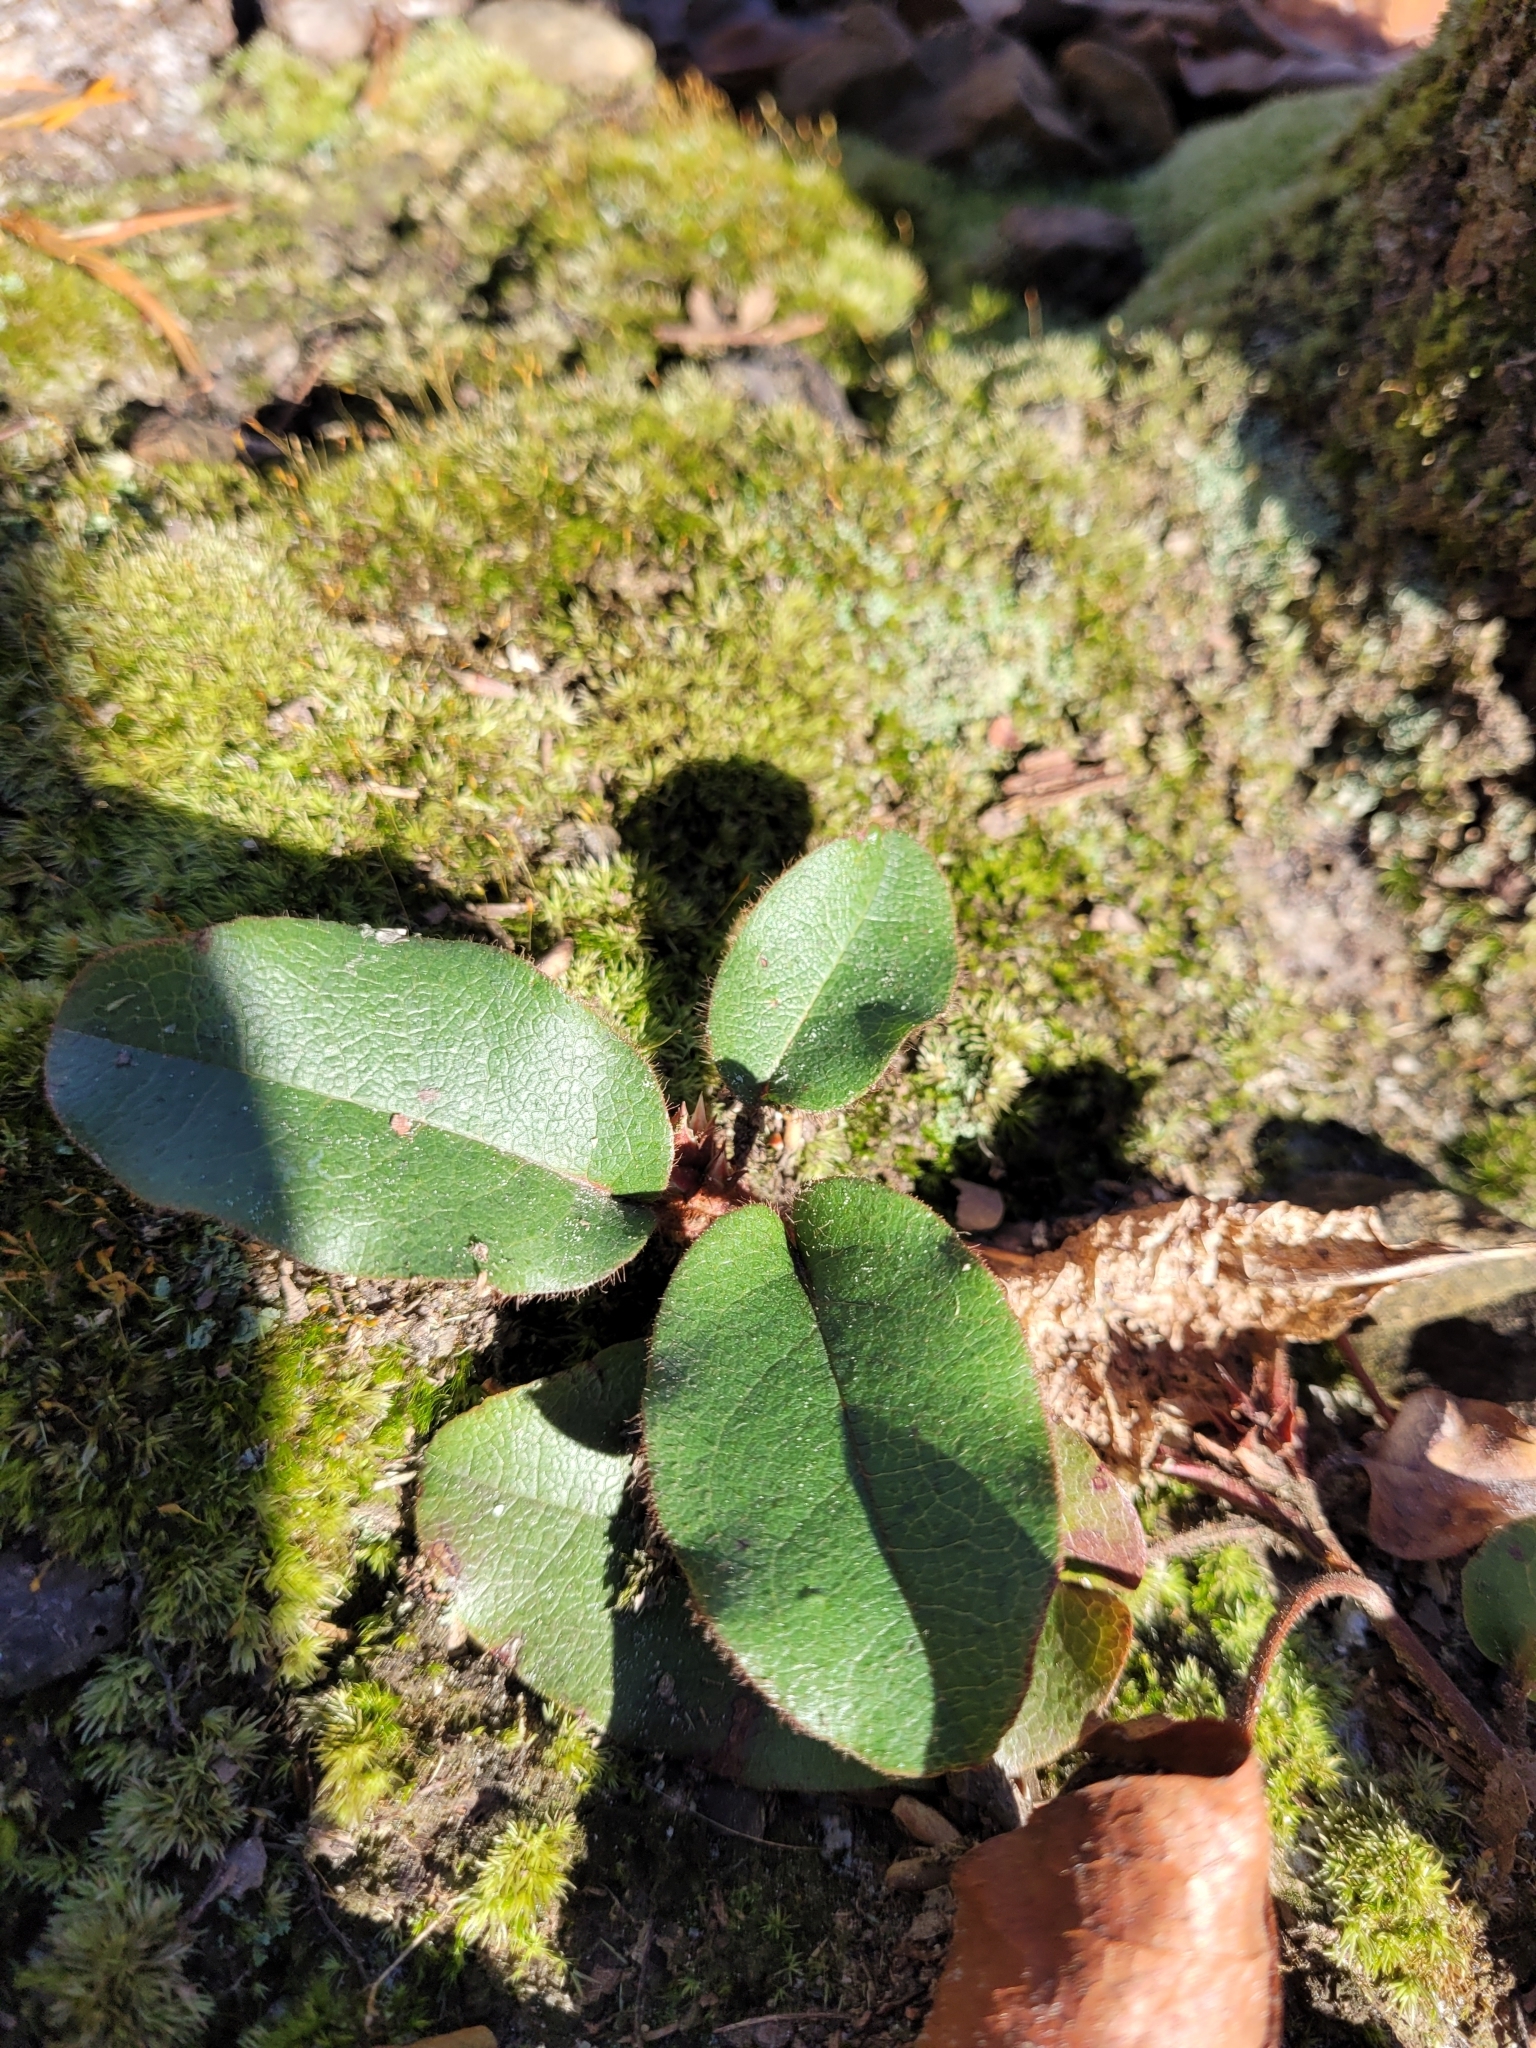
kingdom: Plantae
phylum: Tracheophyta
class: Magnoliopsida
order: Ericales
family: Ericaceae
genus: Epigaea
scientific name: Epigaea repens
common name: Gravelroot
